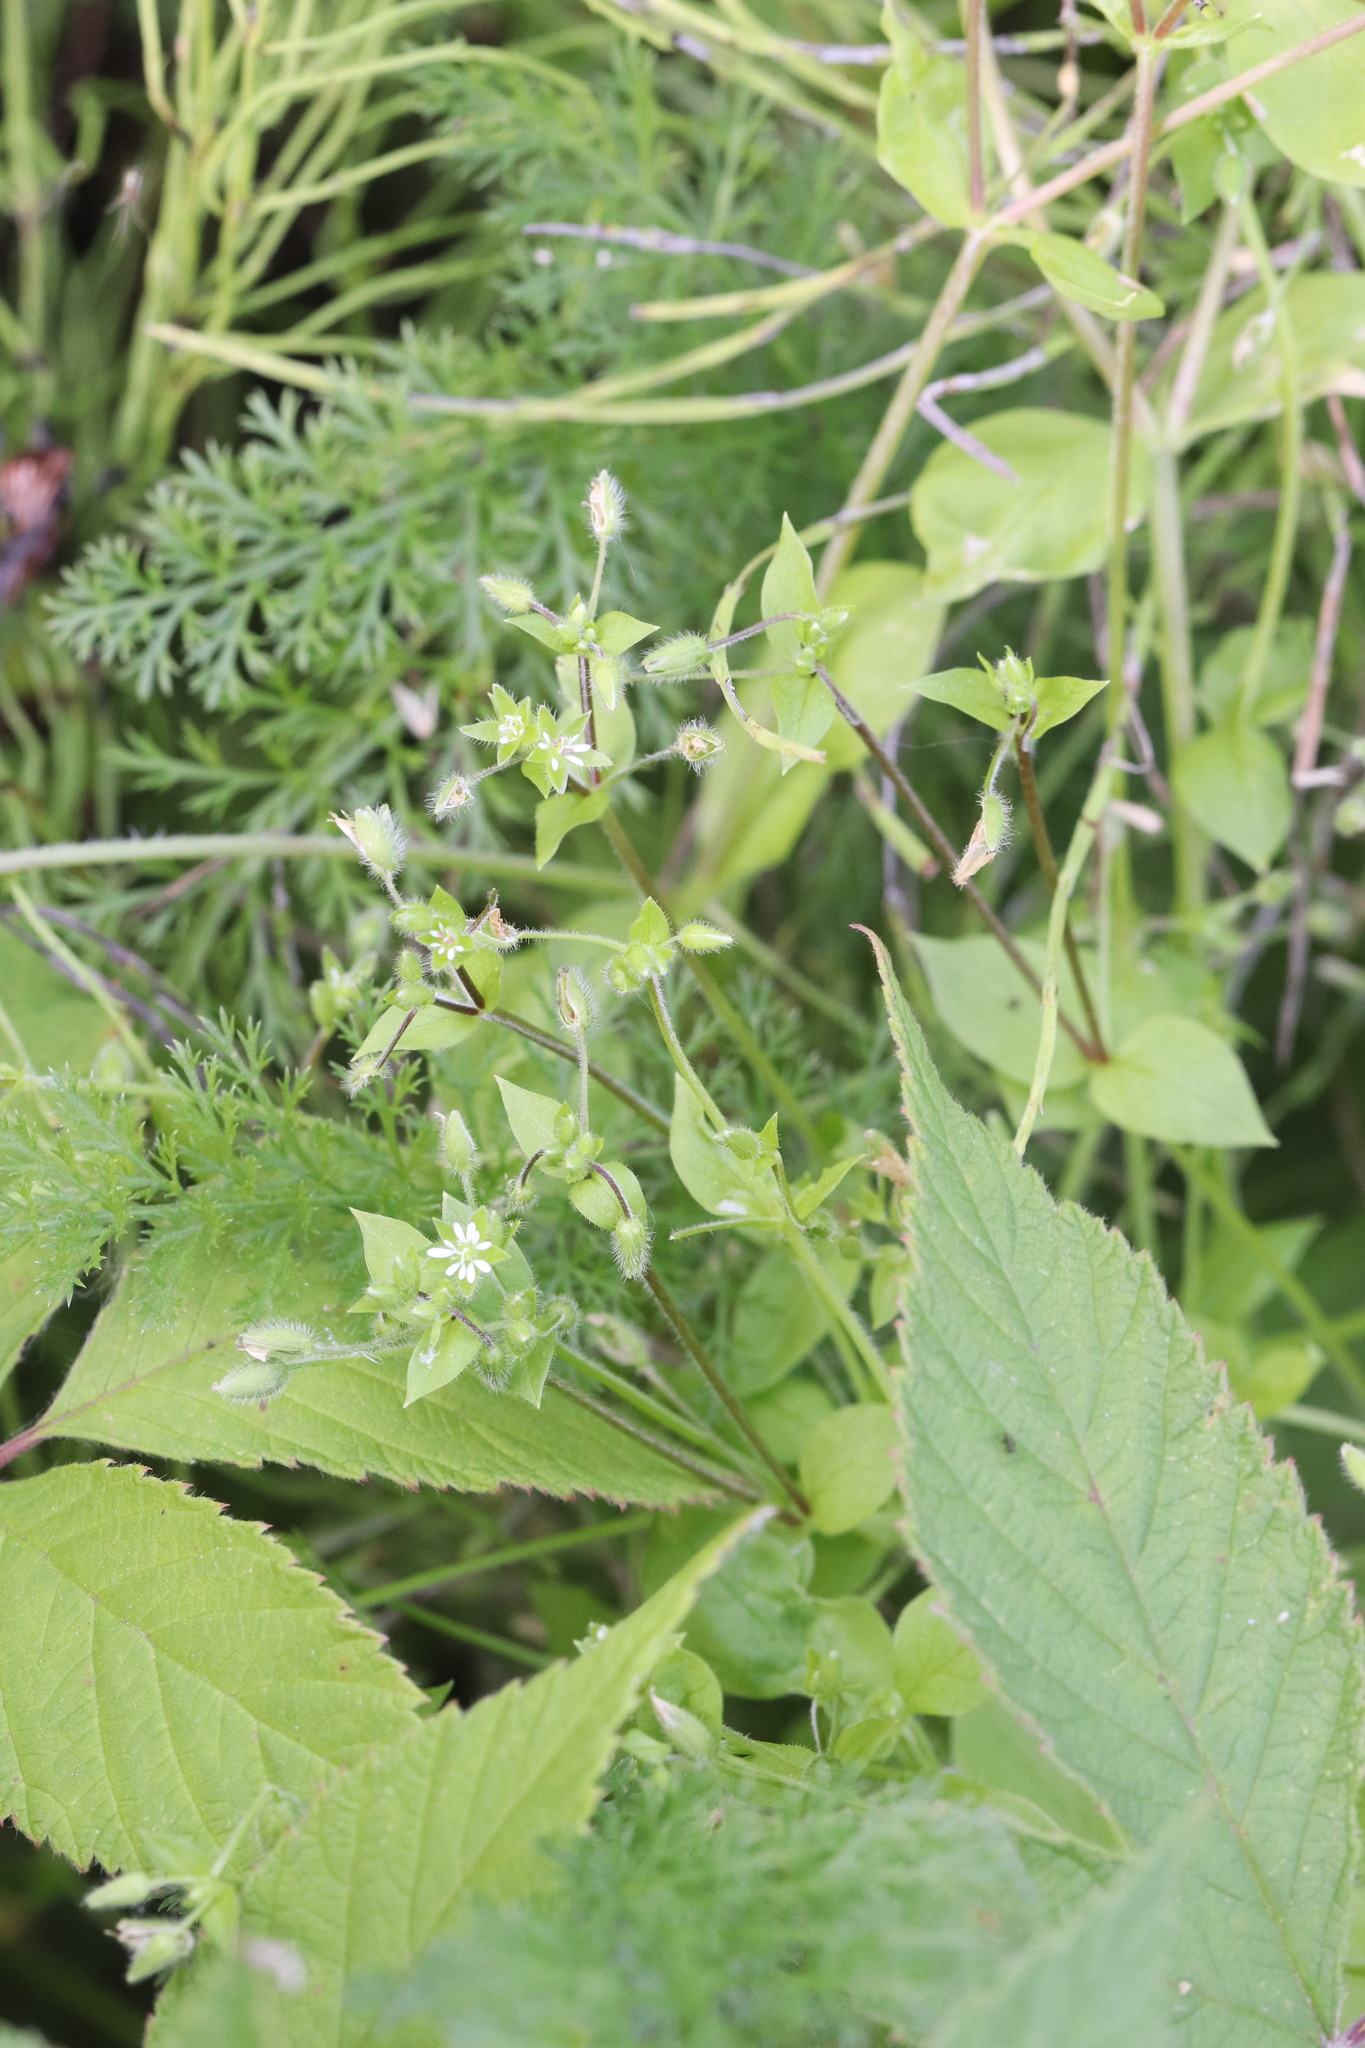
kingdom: Plantae
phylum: Tracheophyta
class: Magnoliopsida
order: Caryophyllales
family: Caryophyllaceae
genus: Stellaria
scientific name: Stellaria media
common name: Common chickweed
